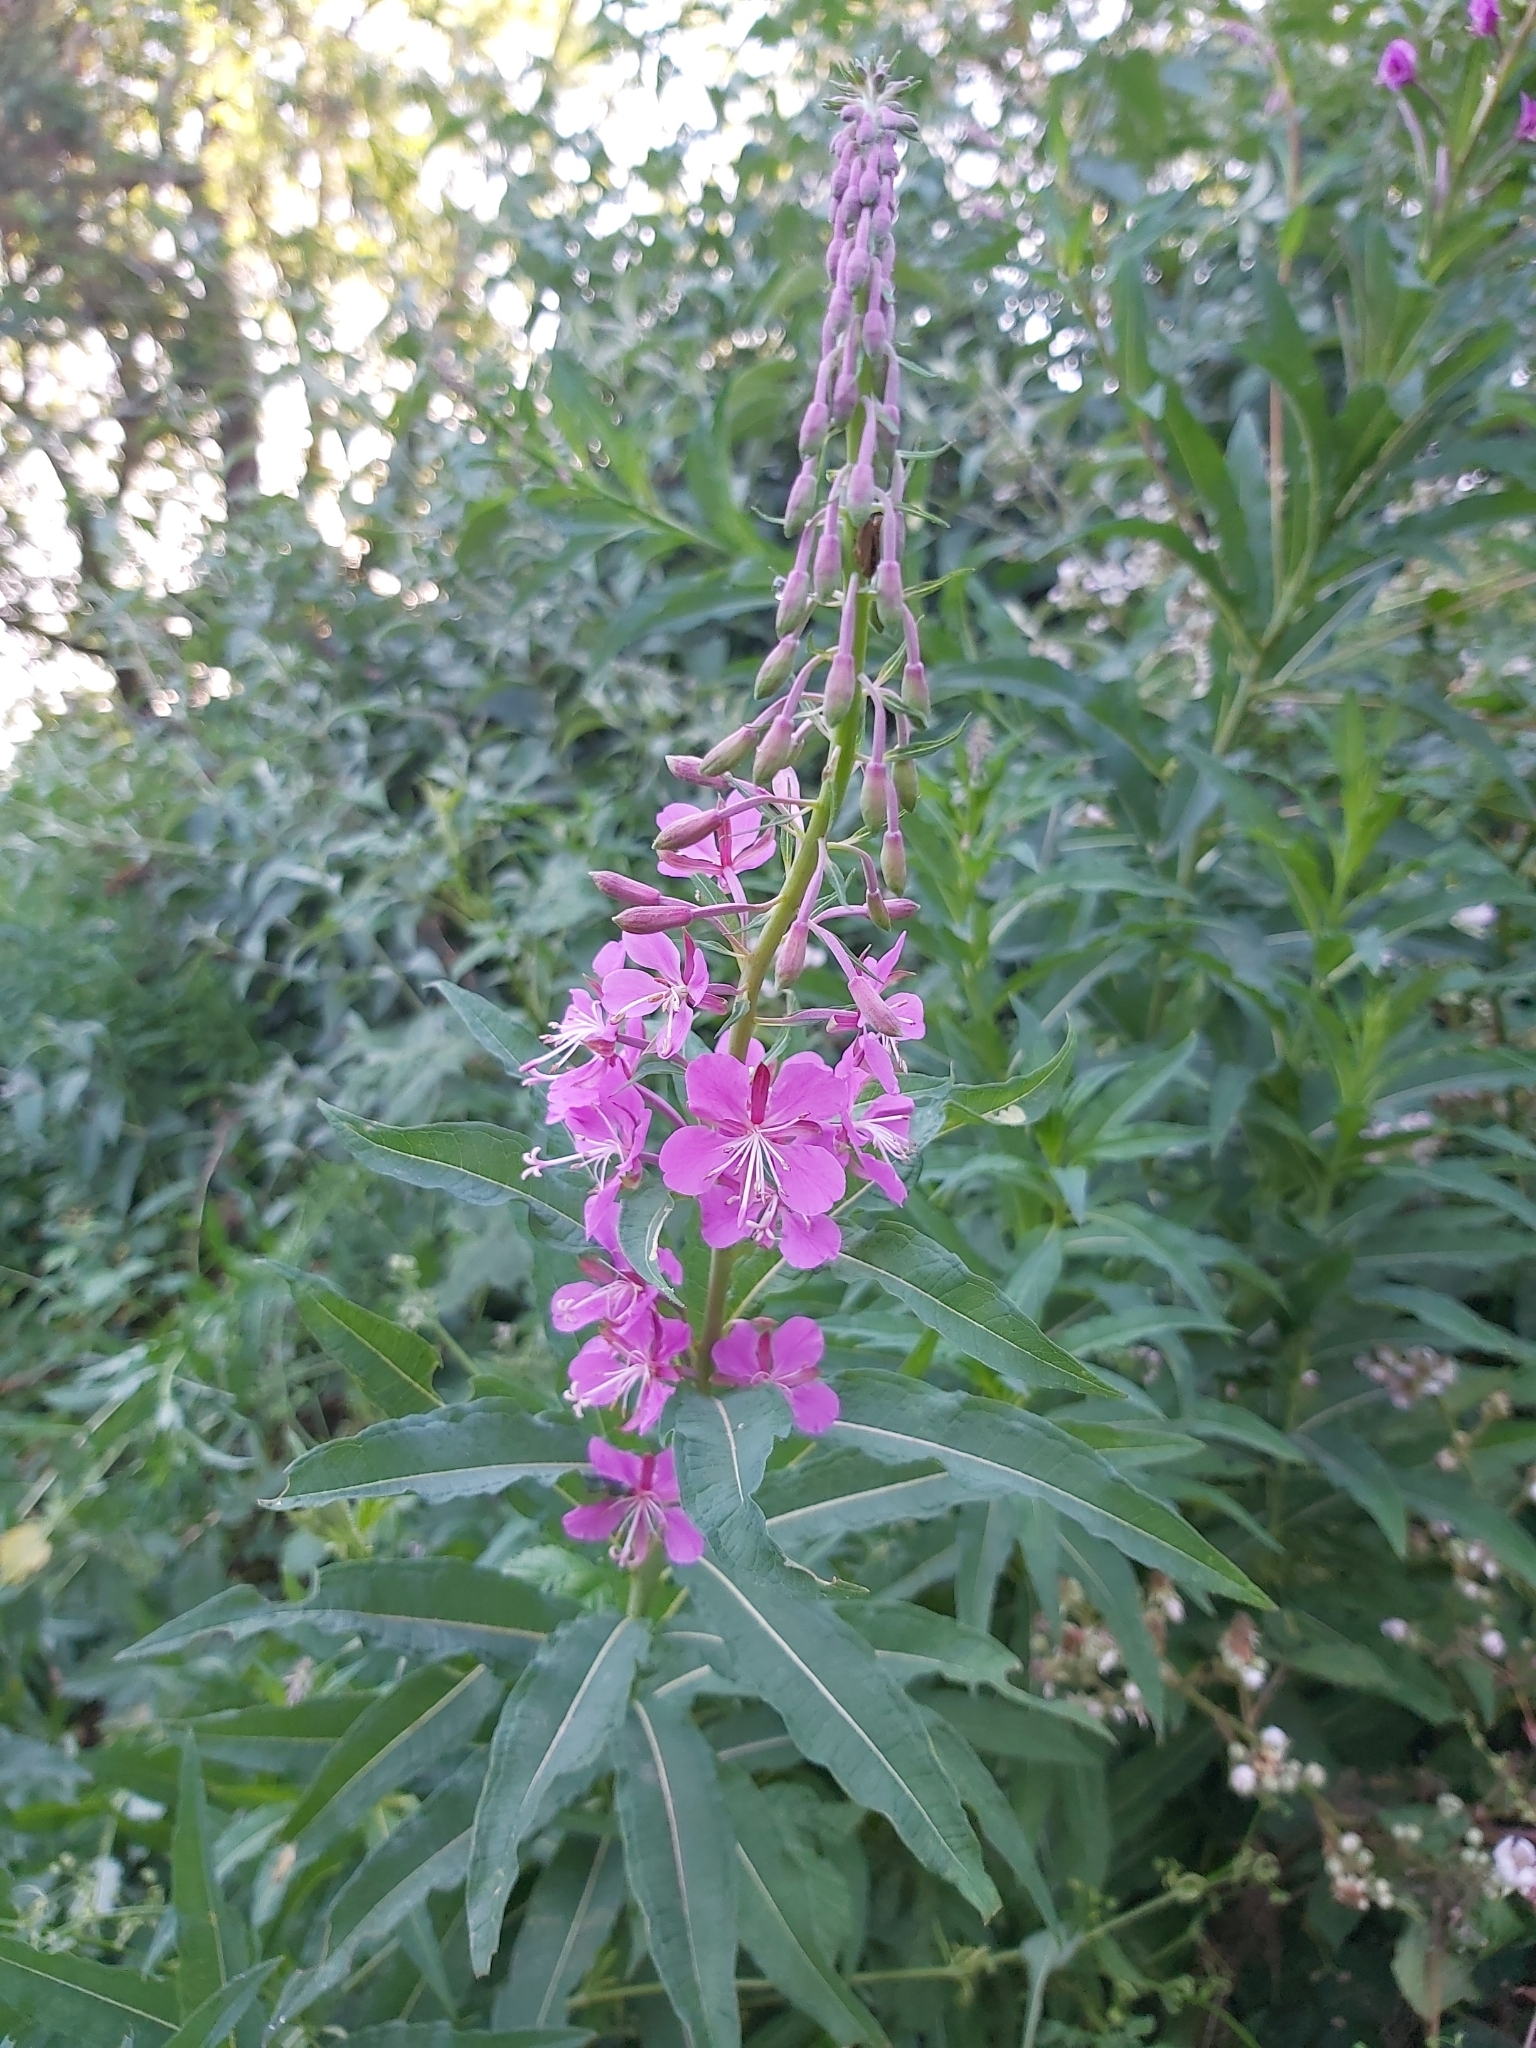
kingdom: Plantae
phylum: Tracheophyta
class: Magnoliopsida
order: Myrtales
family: Onagraceae
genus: Chamaenerion
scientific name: Chamaenerion angustifolium
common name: Fireweed
